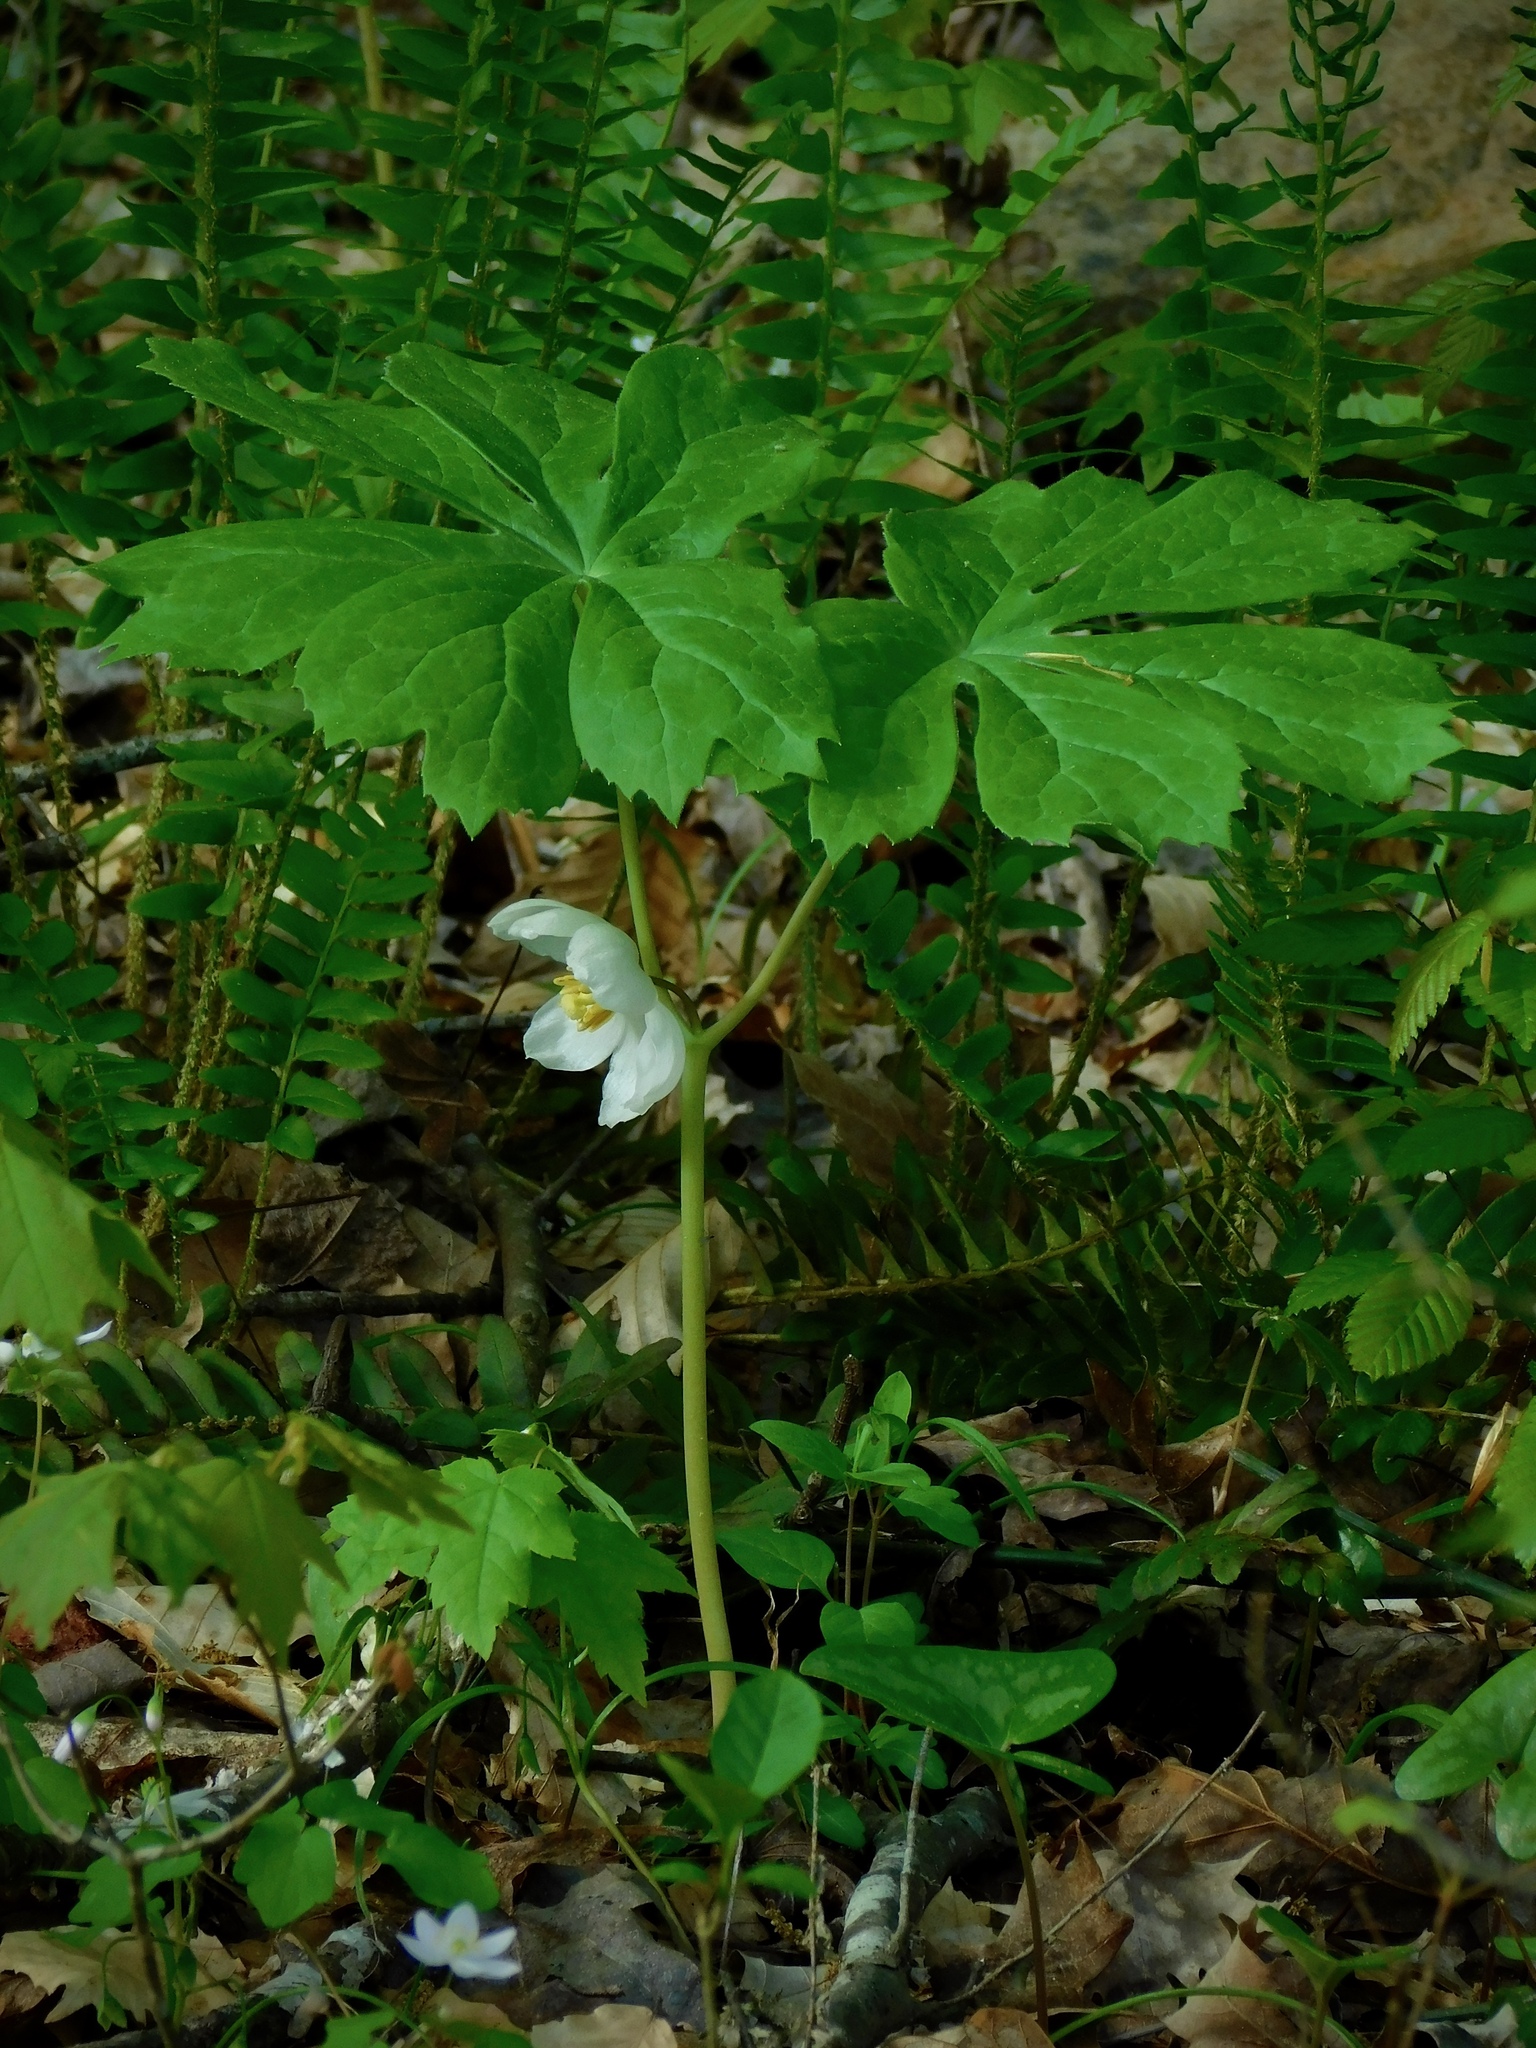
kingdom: Plantae
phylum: Tracheophyta
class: Magnoliopsida
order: Ranunculales
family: Berberidaceae
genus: Podophyllum
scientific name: Podophyllum peltatum
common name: Wild mandrake
